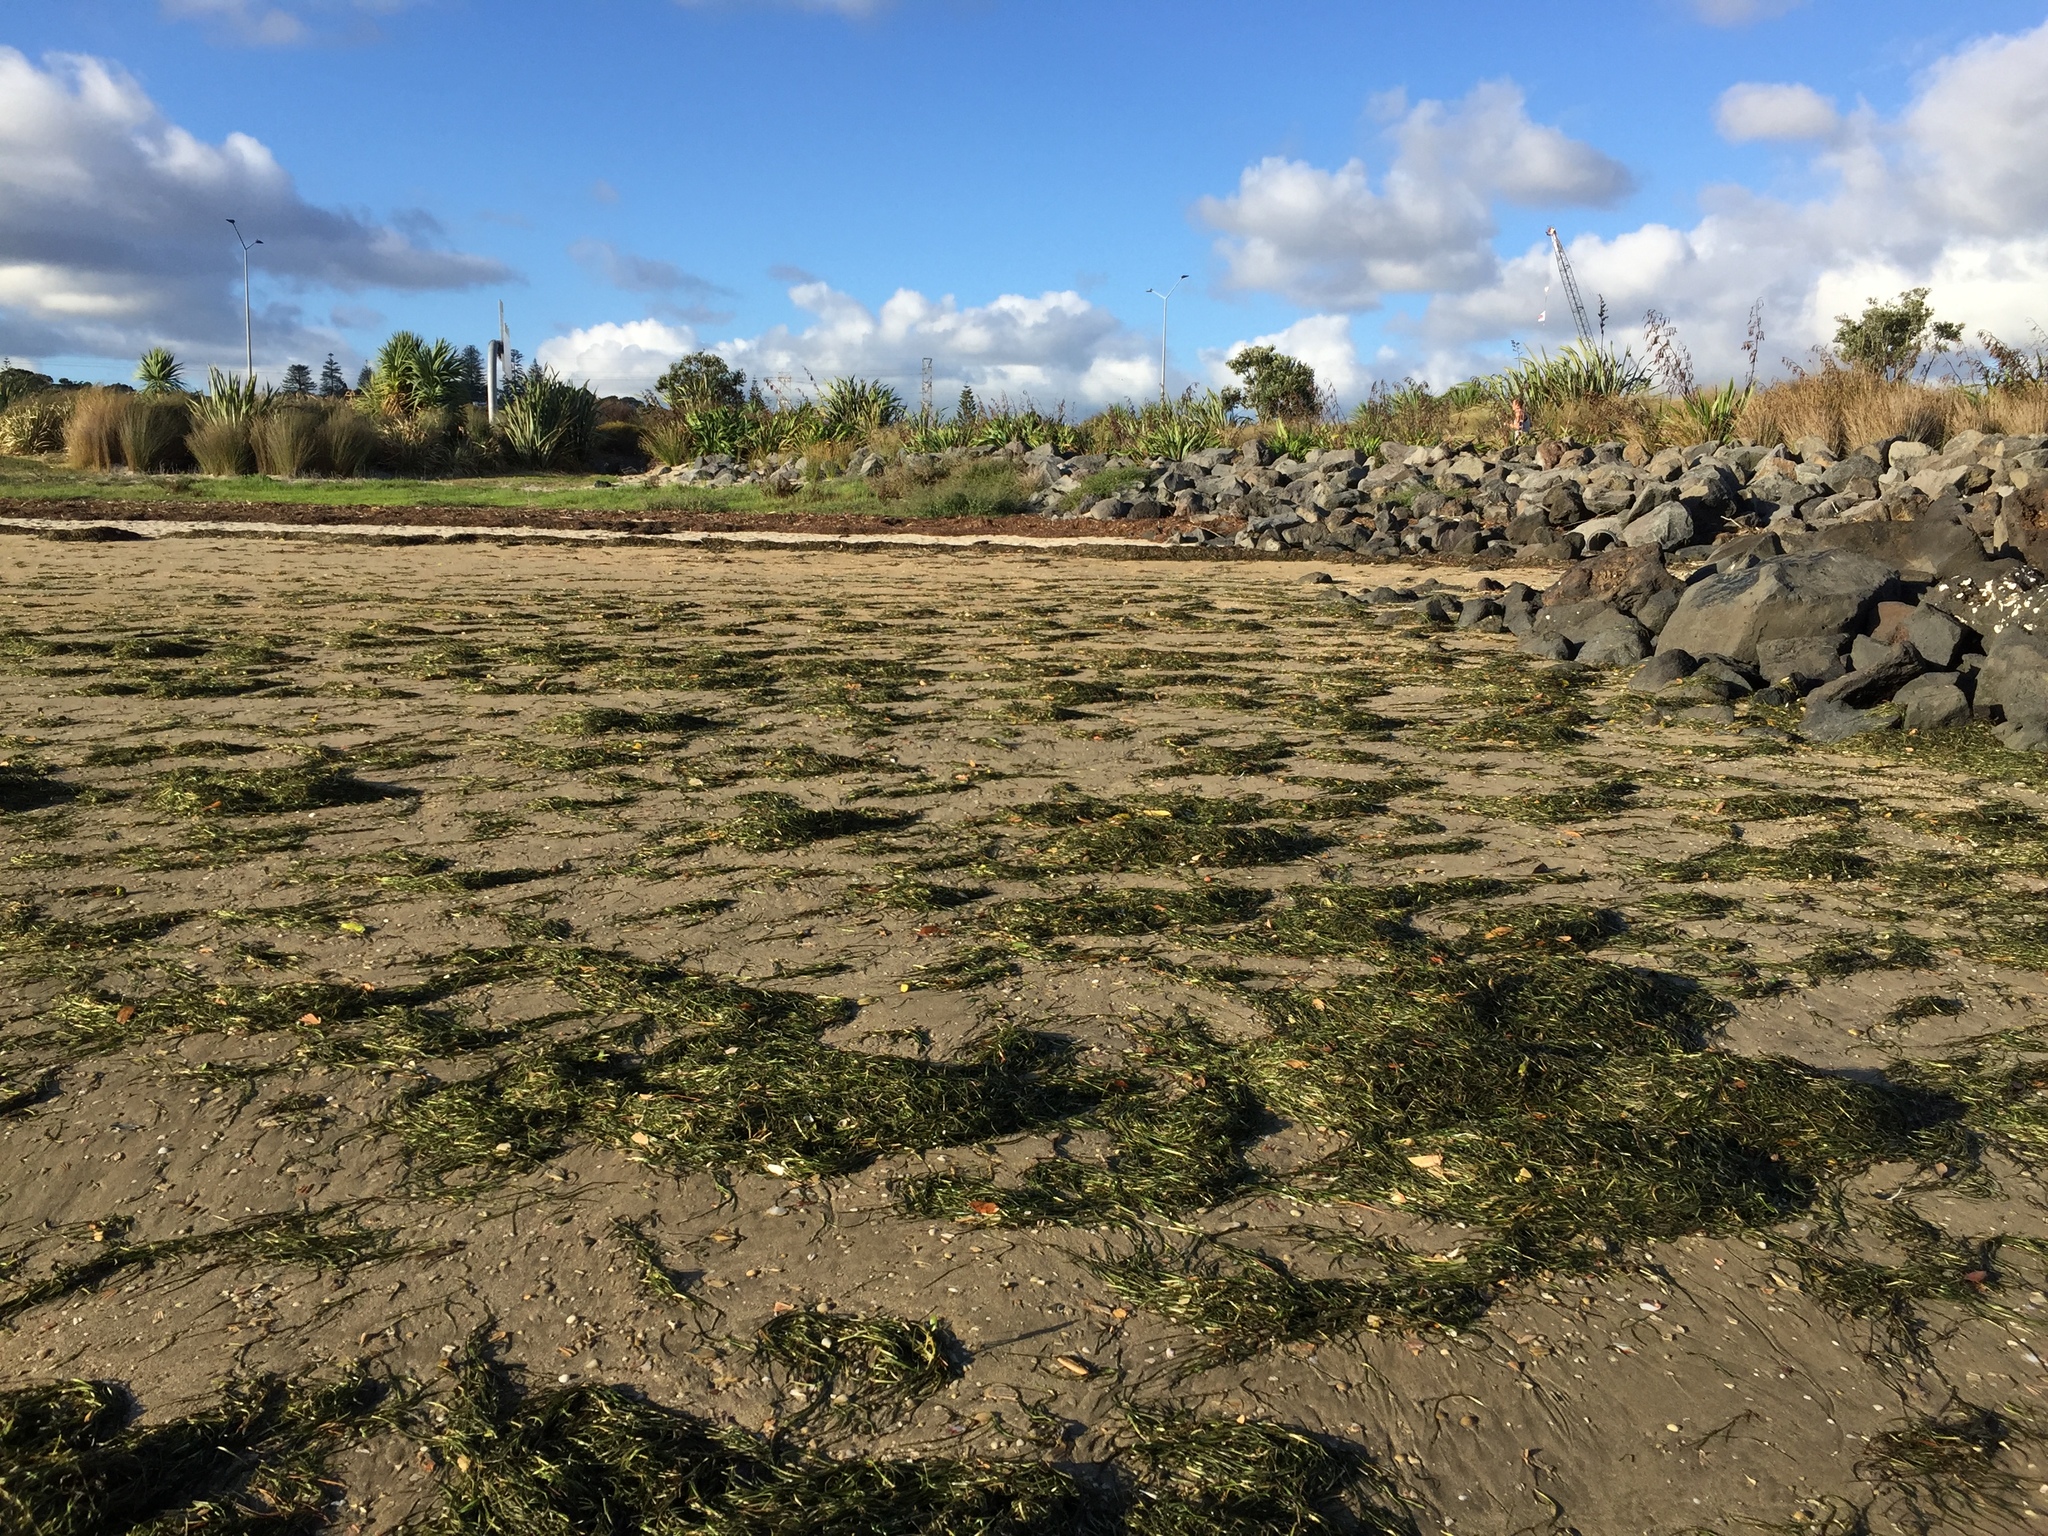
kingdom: Plantae
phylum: Tracheophyta
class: Liliopsida
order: Alismatales
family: Zosteraceae
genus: Zostera
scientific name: Zostera novazelandica
